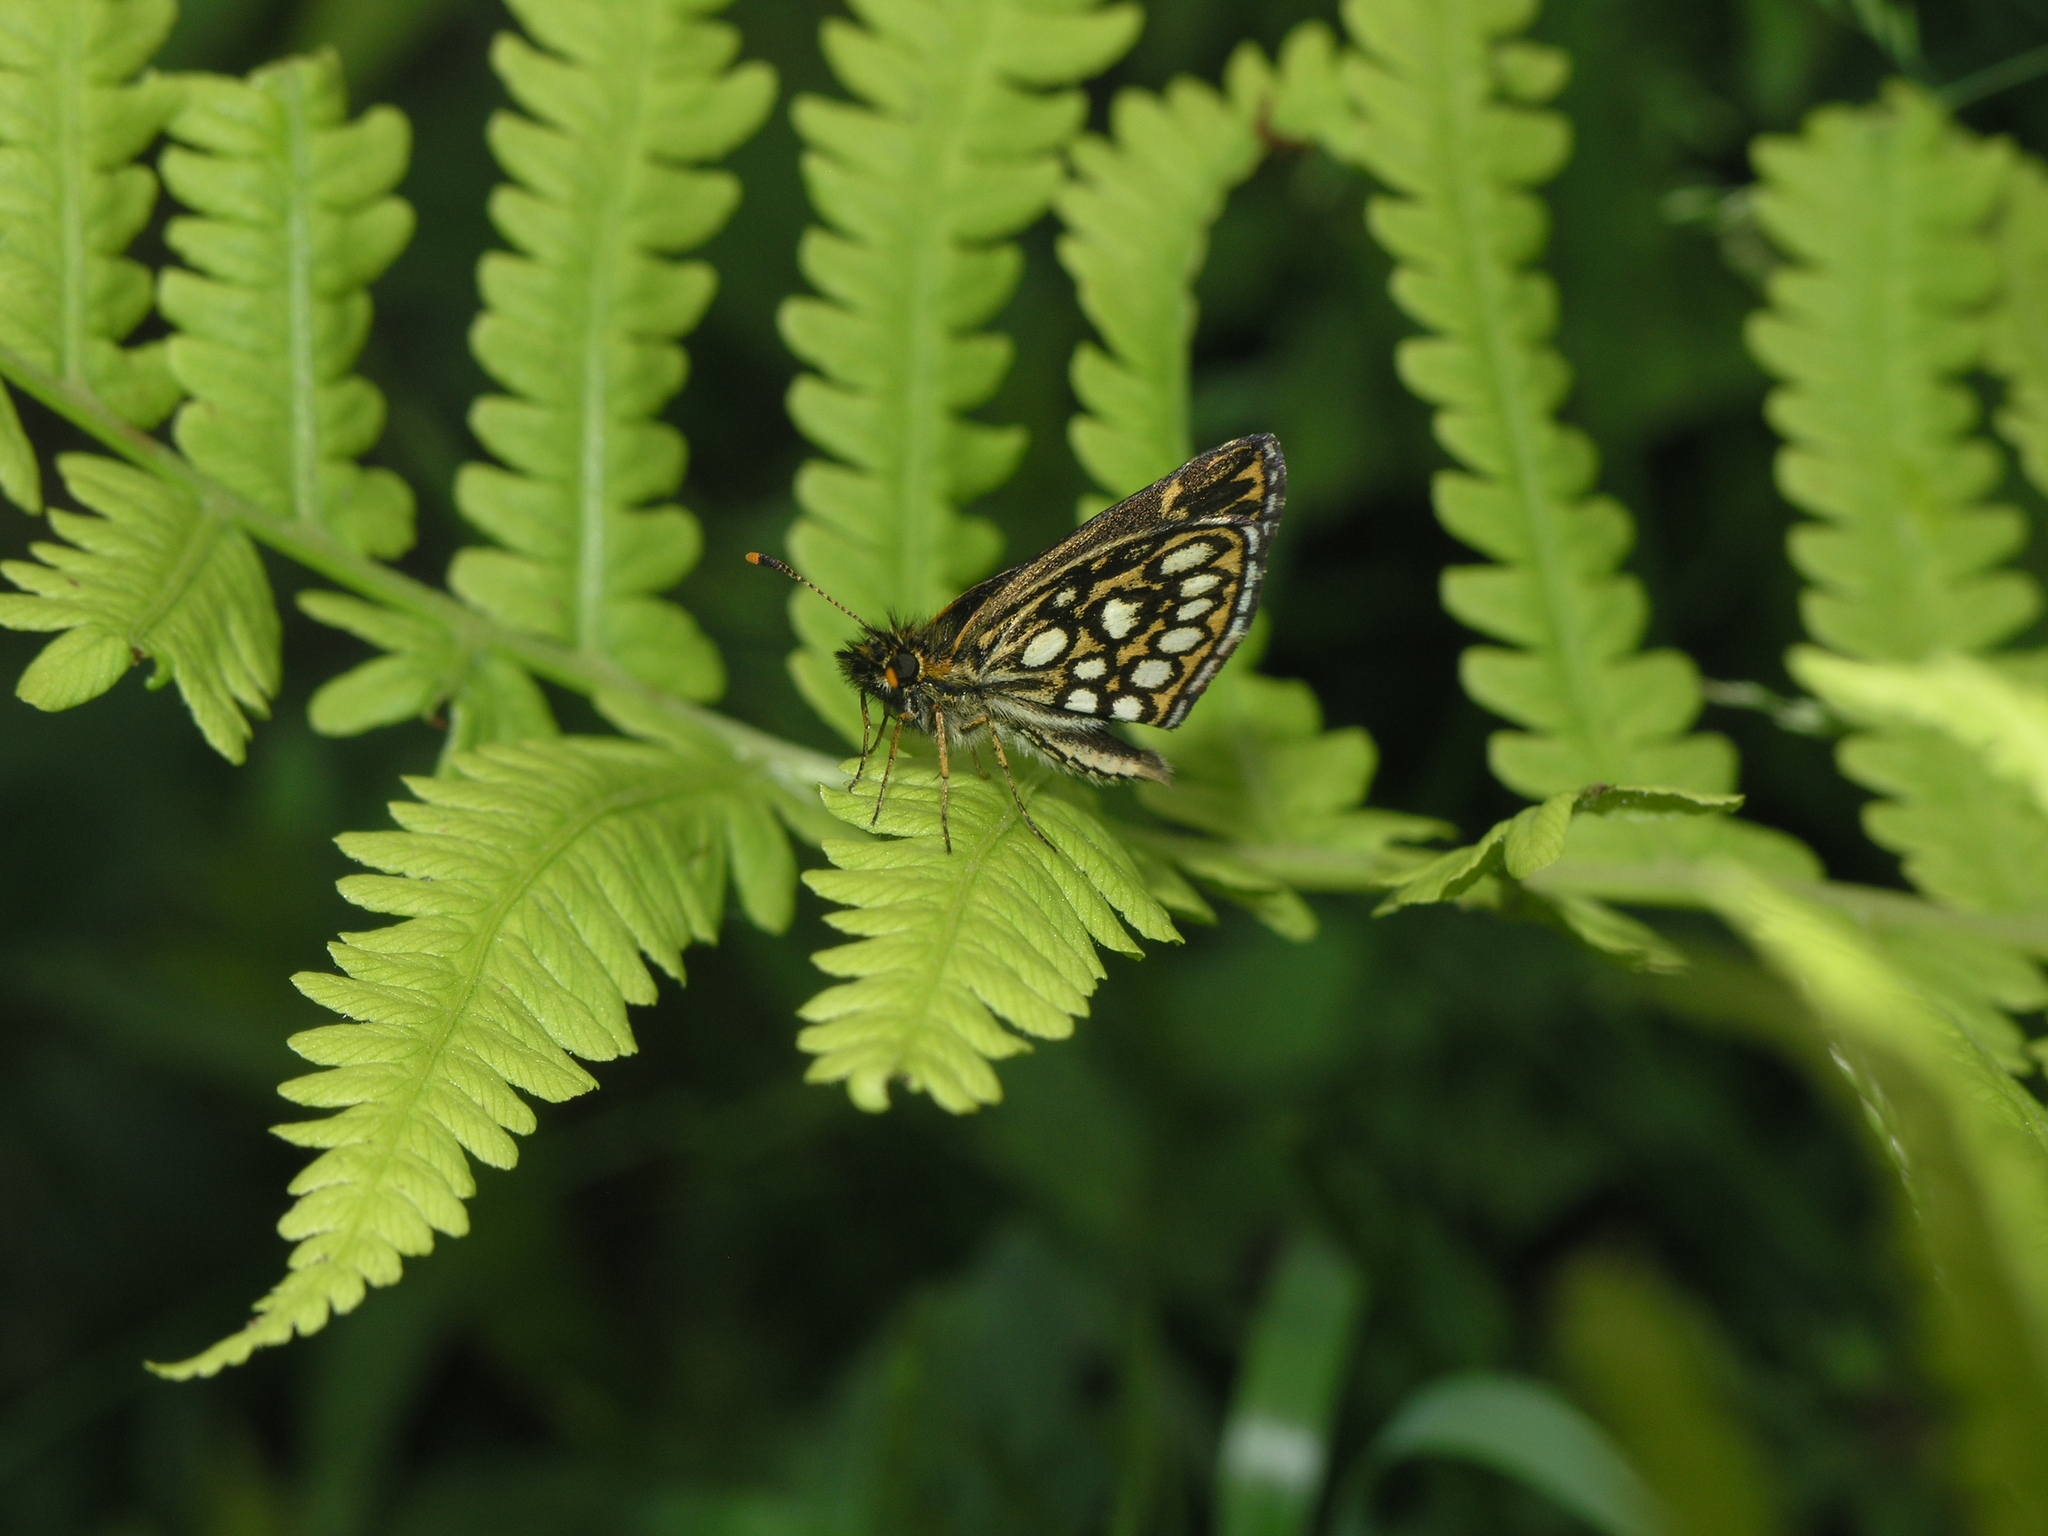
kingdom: Animalia
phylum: Arthropoda
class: Insecta
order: Lepidoptera
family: Hesperiidae
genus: Heteropterus
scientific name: Heteropterus morpheus
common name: Large chequered skipper
